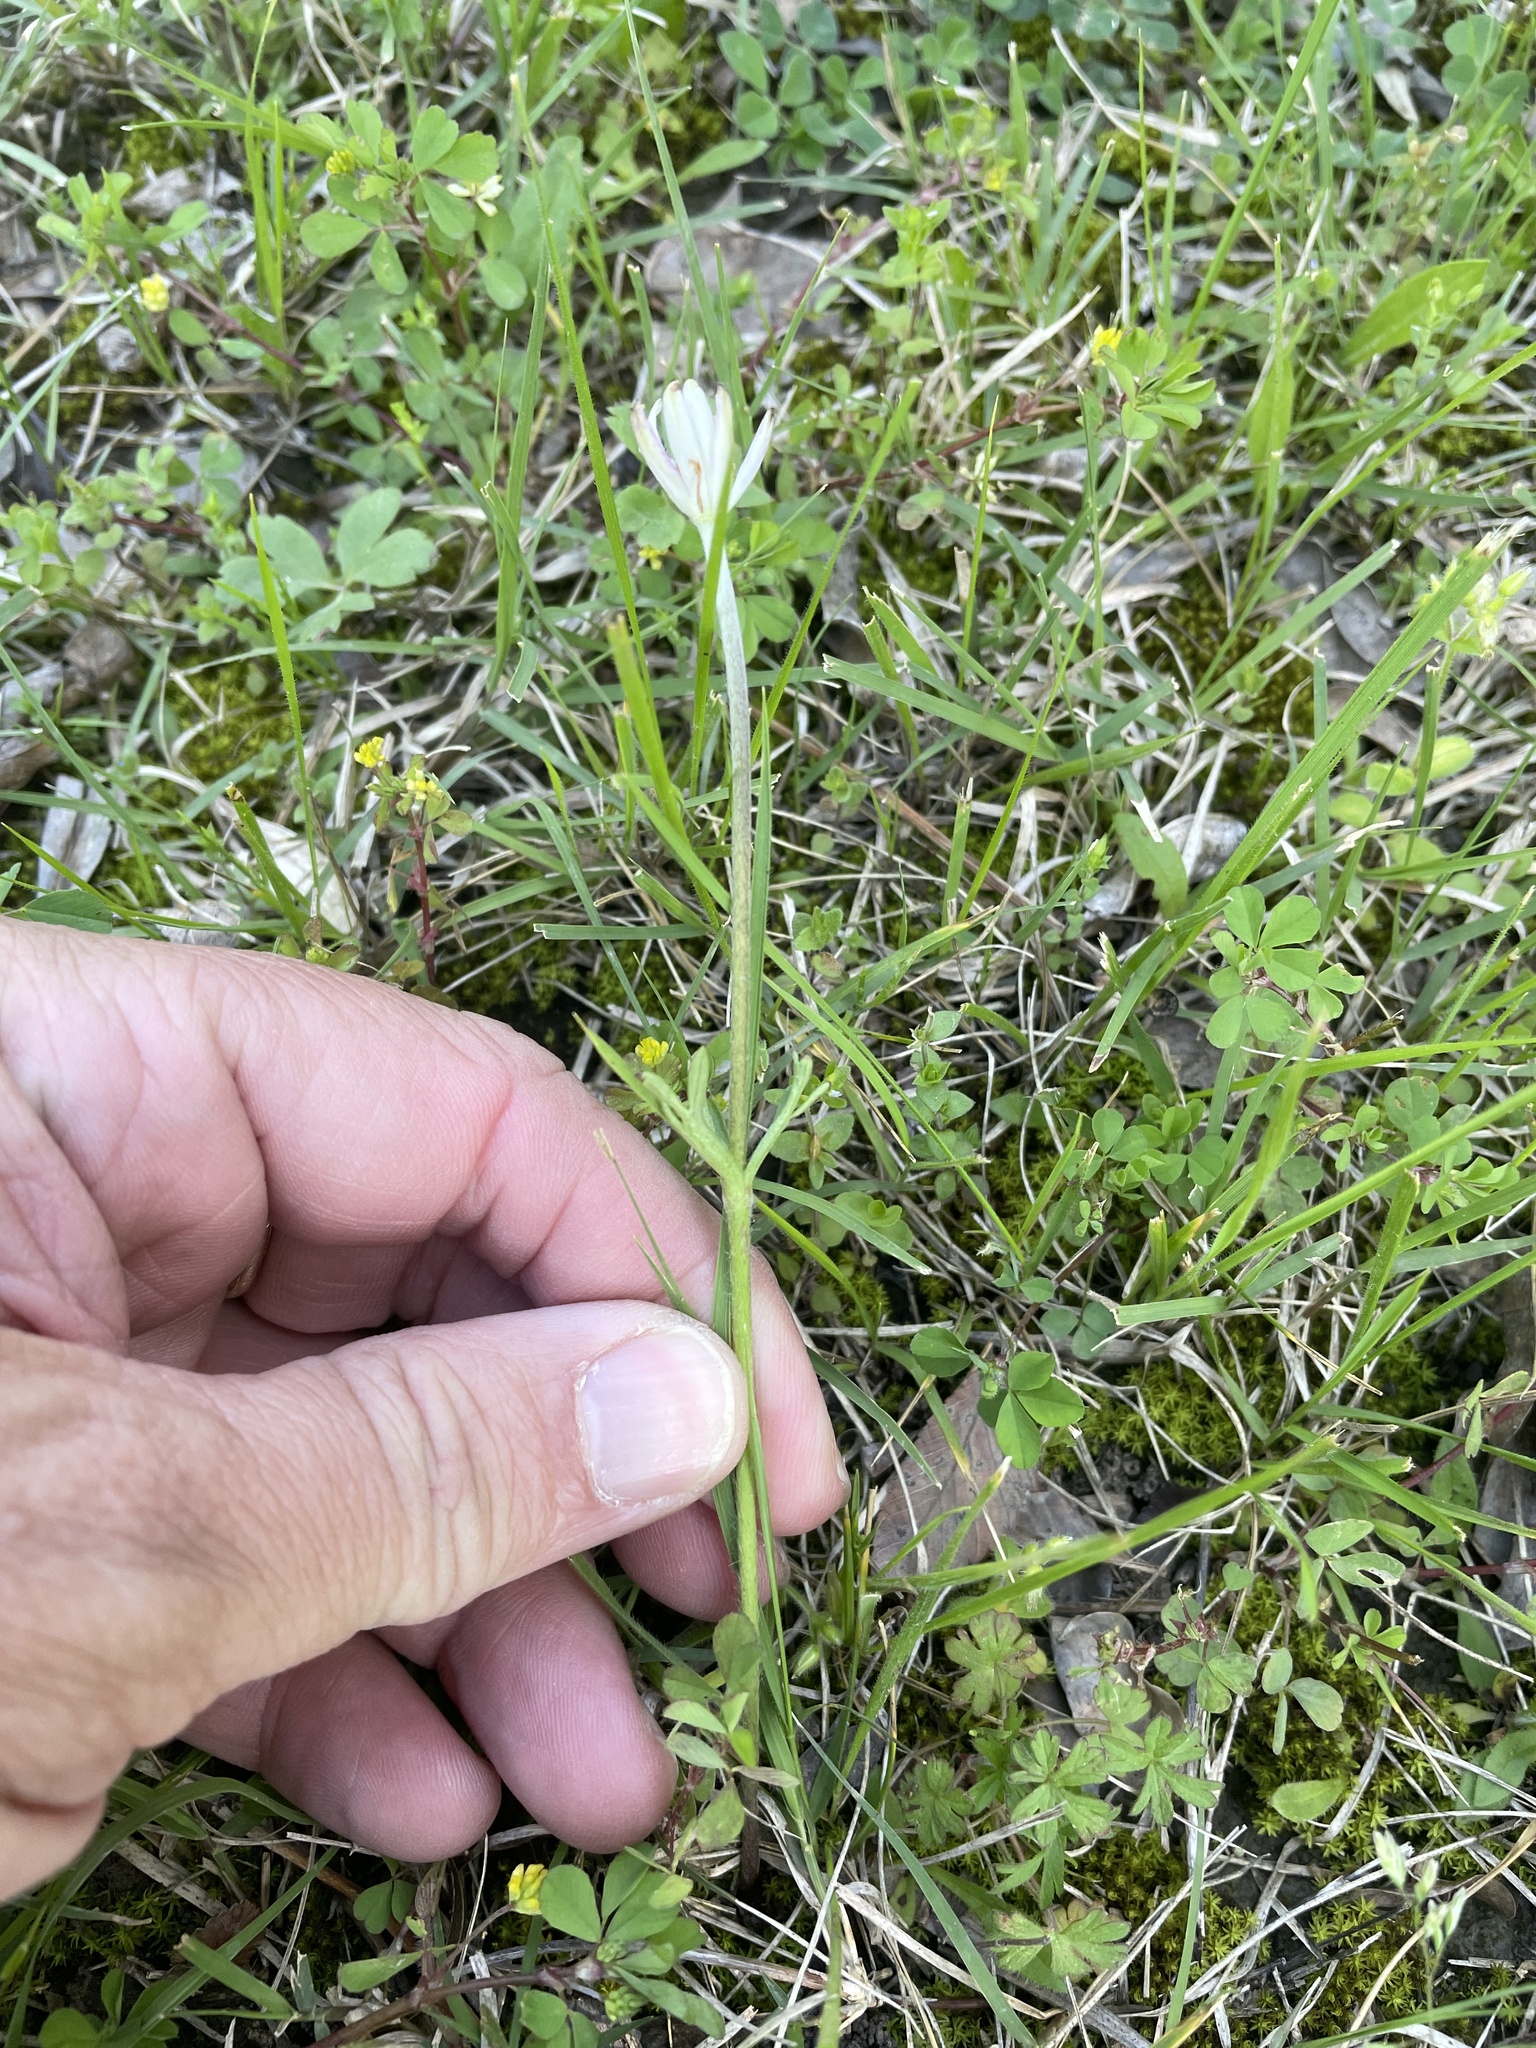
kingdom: Plantae
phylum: Tracheophyta
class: Magnoliopsida
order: Ranunculales
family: Ranunculaceae
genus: Anemone
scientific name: Anemone berlandieri
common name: Ten-petal anemone
